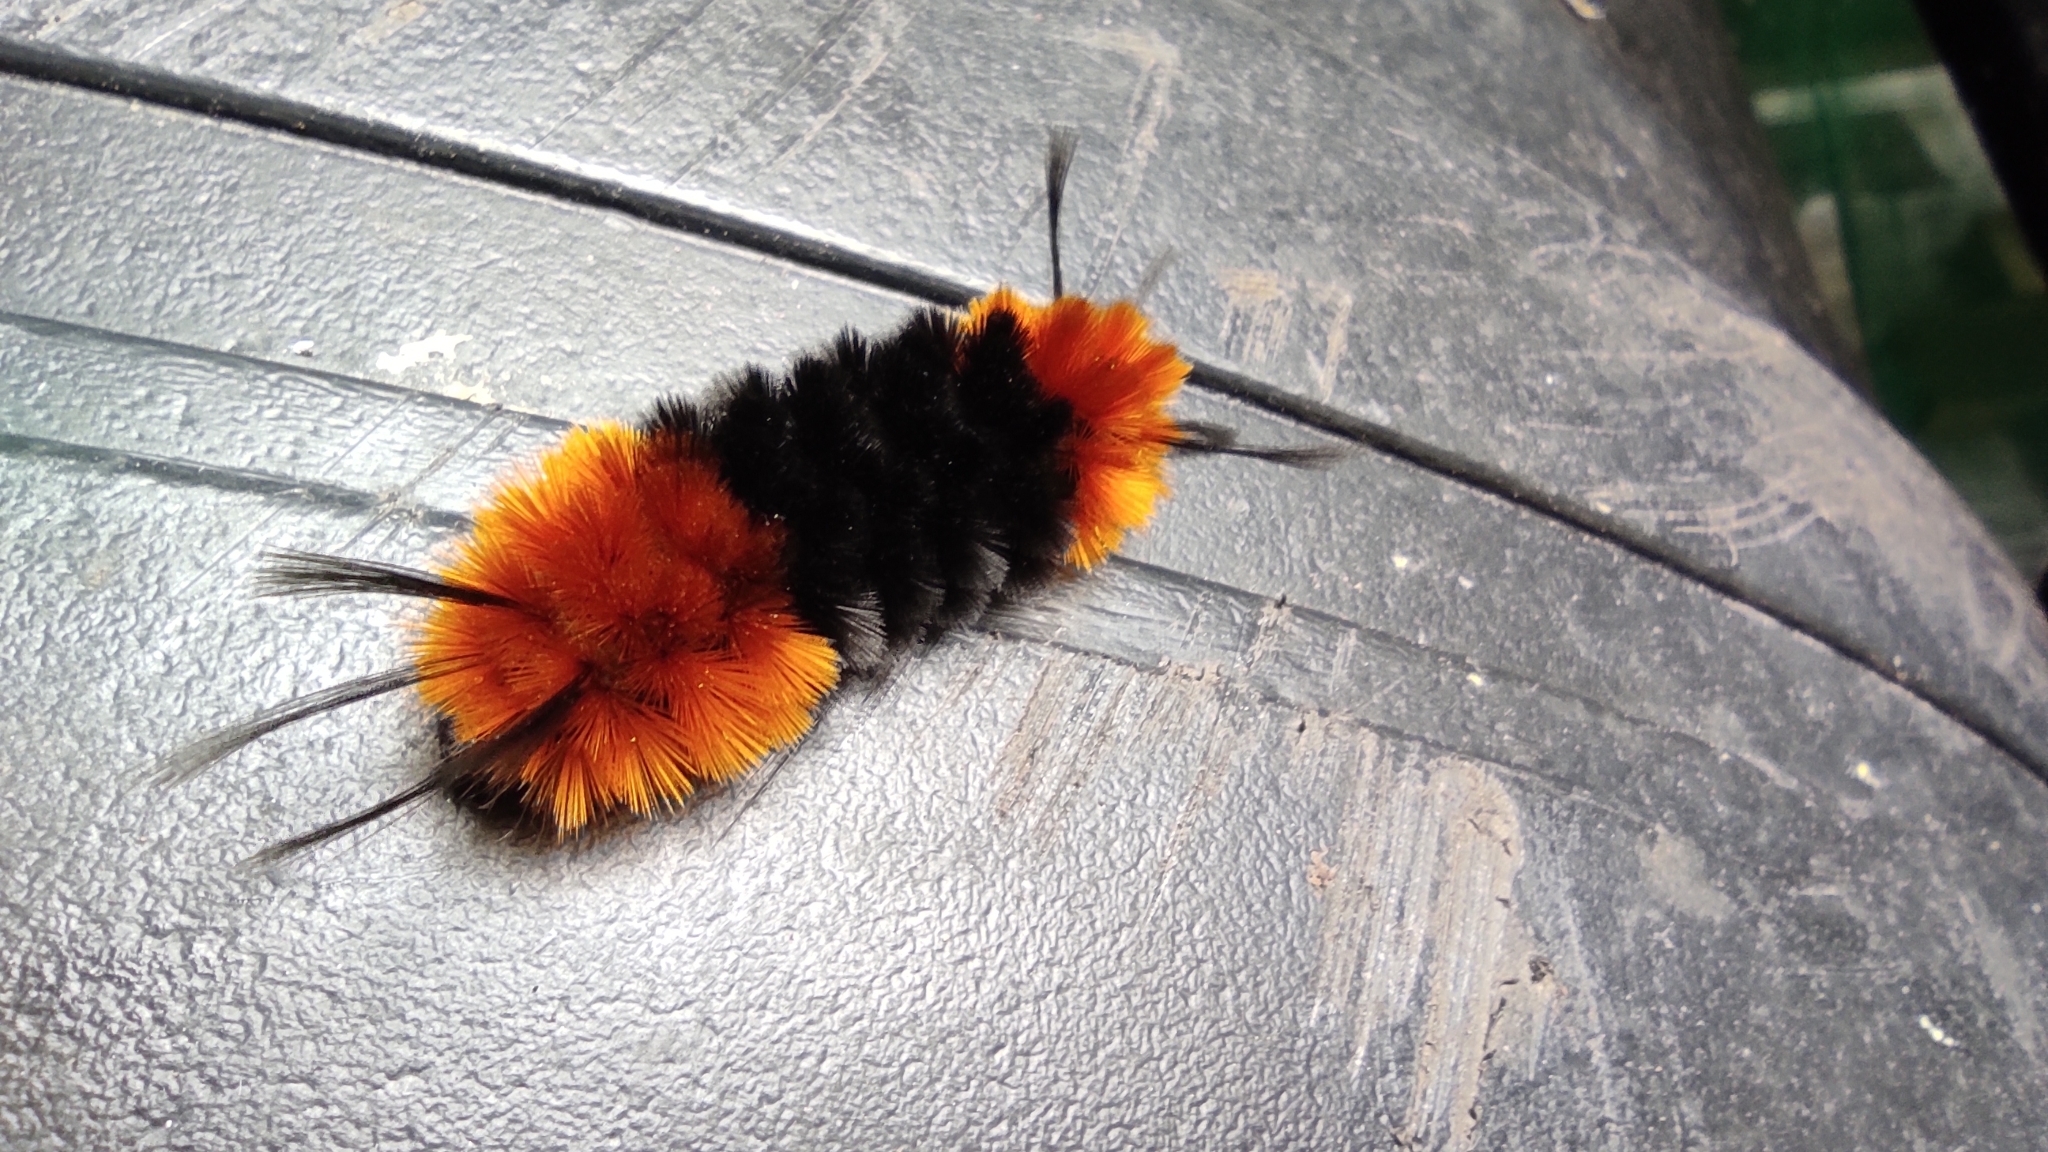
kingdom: Animalia
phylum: Arthropoda
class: Insecta
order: Lepidoptera
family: Erebidae
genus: Turuptiana
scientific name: Turuptiana
